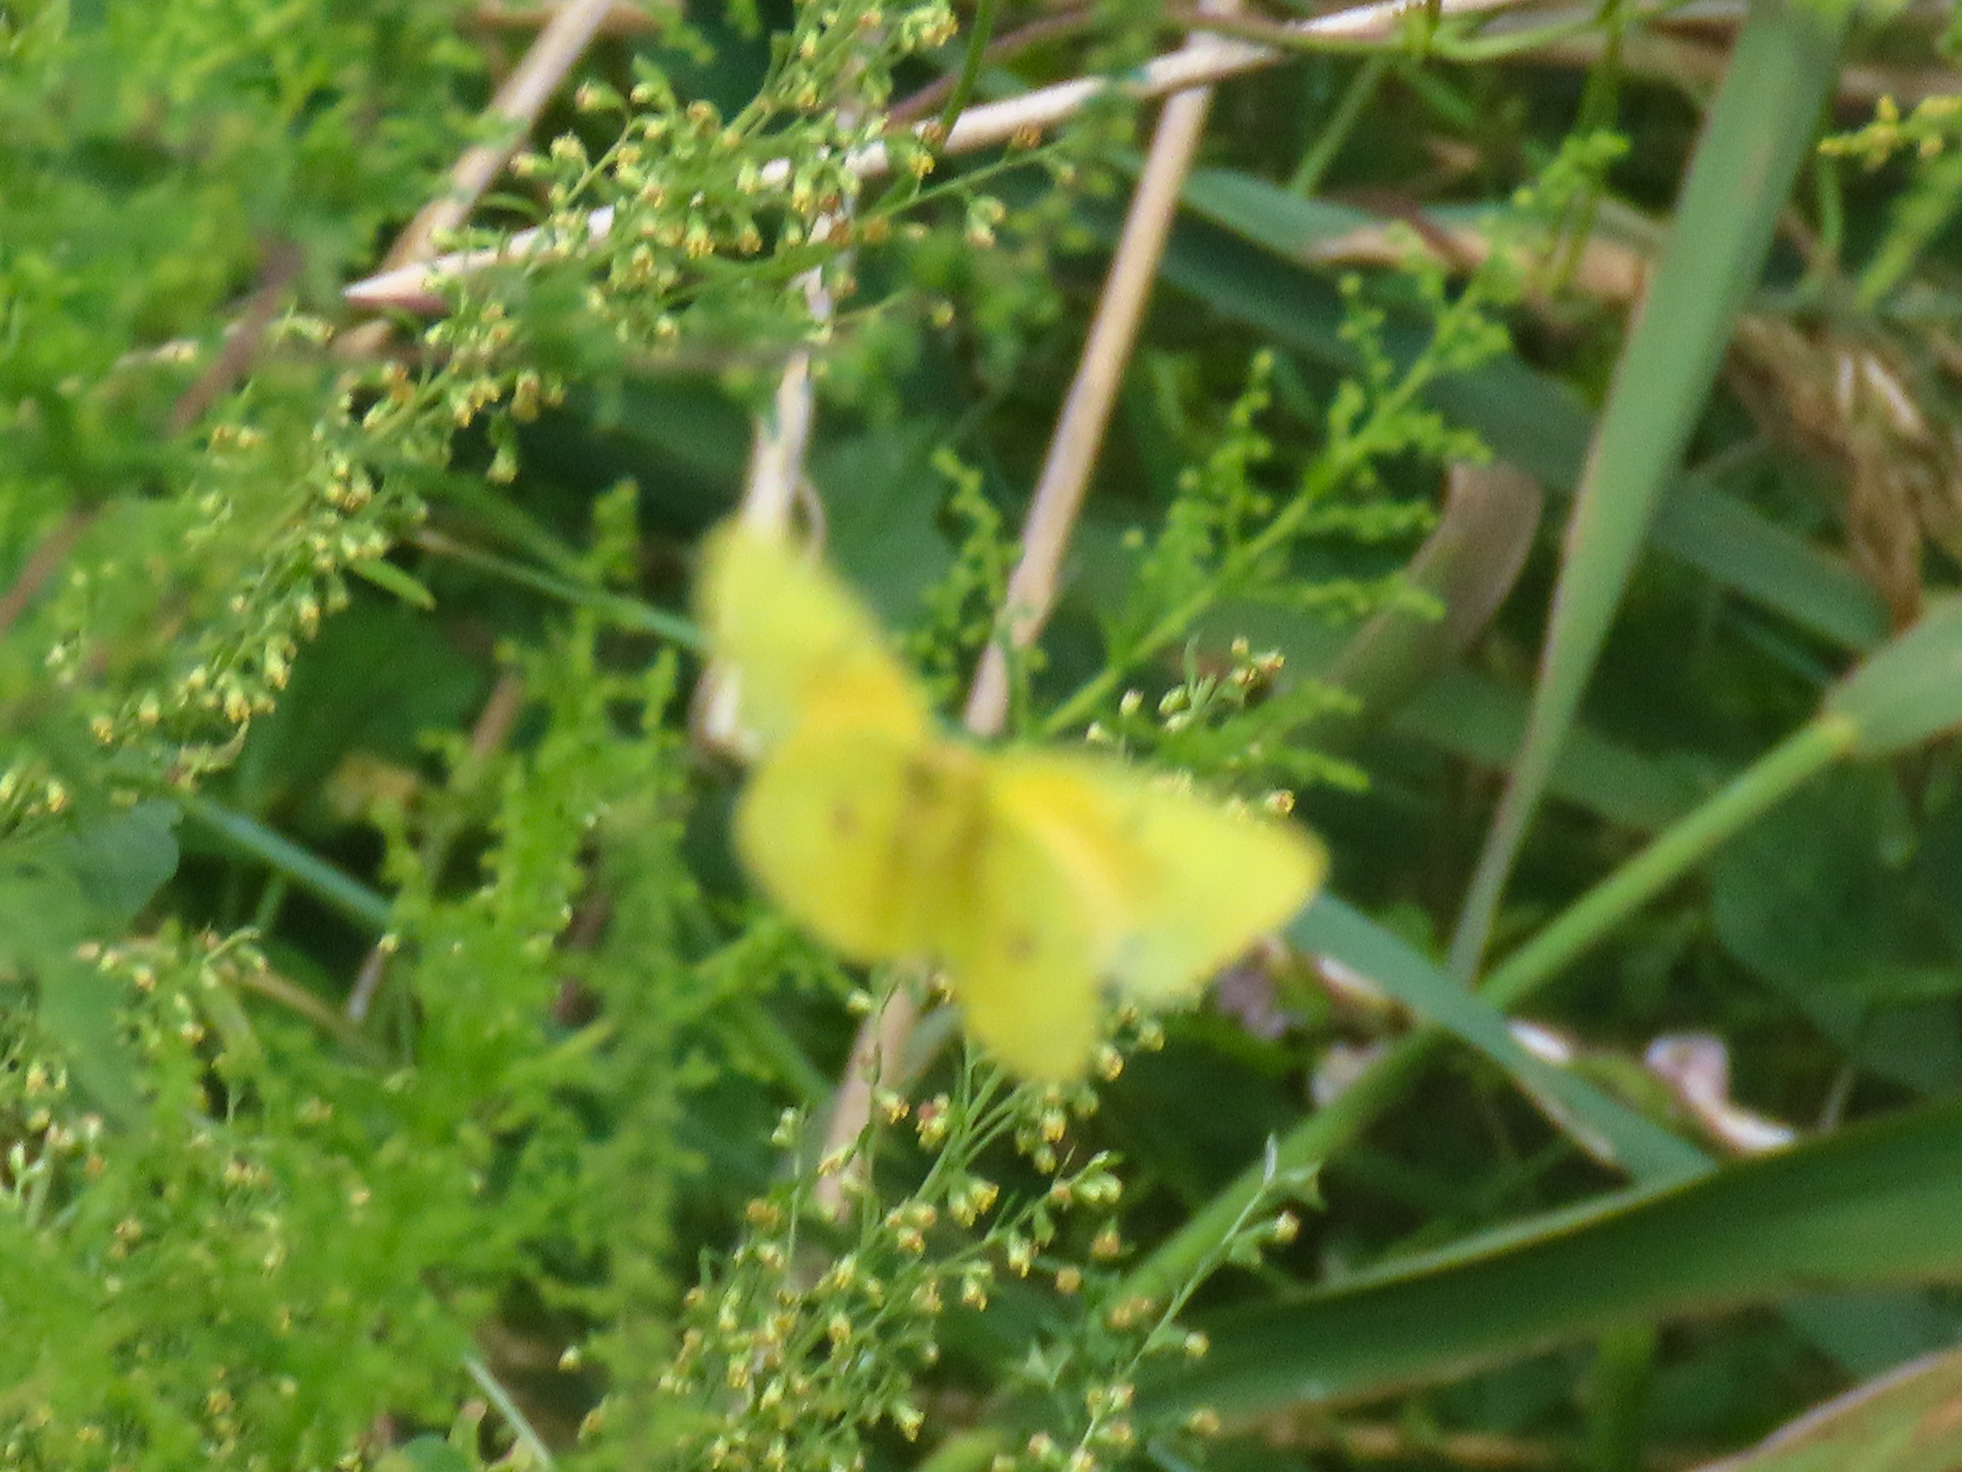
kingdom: Animalia
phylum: Arthropoda
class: Insecta
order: Lepidoptera
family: Pieridae
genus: Colias
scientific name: Colias eurytheme
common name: Alfalfa butterfly
